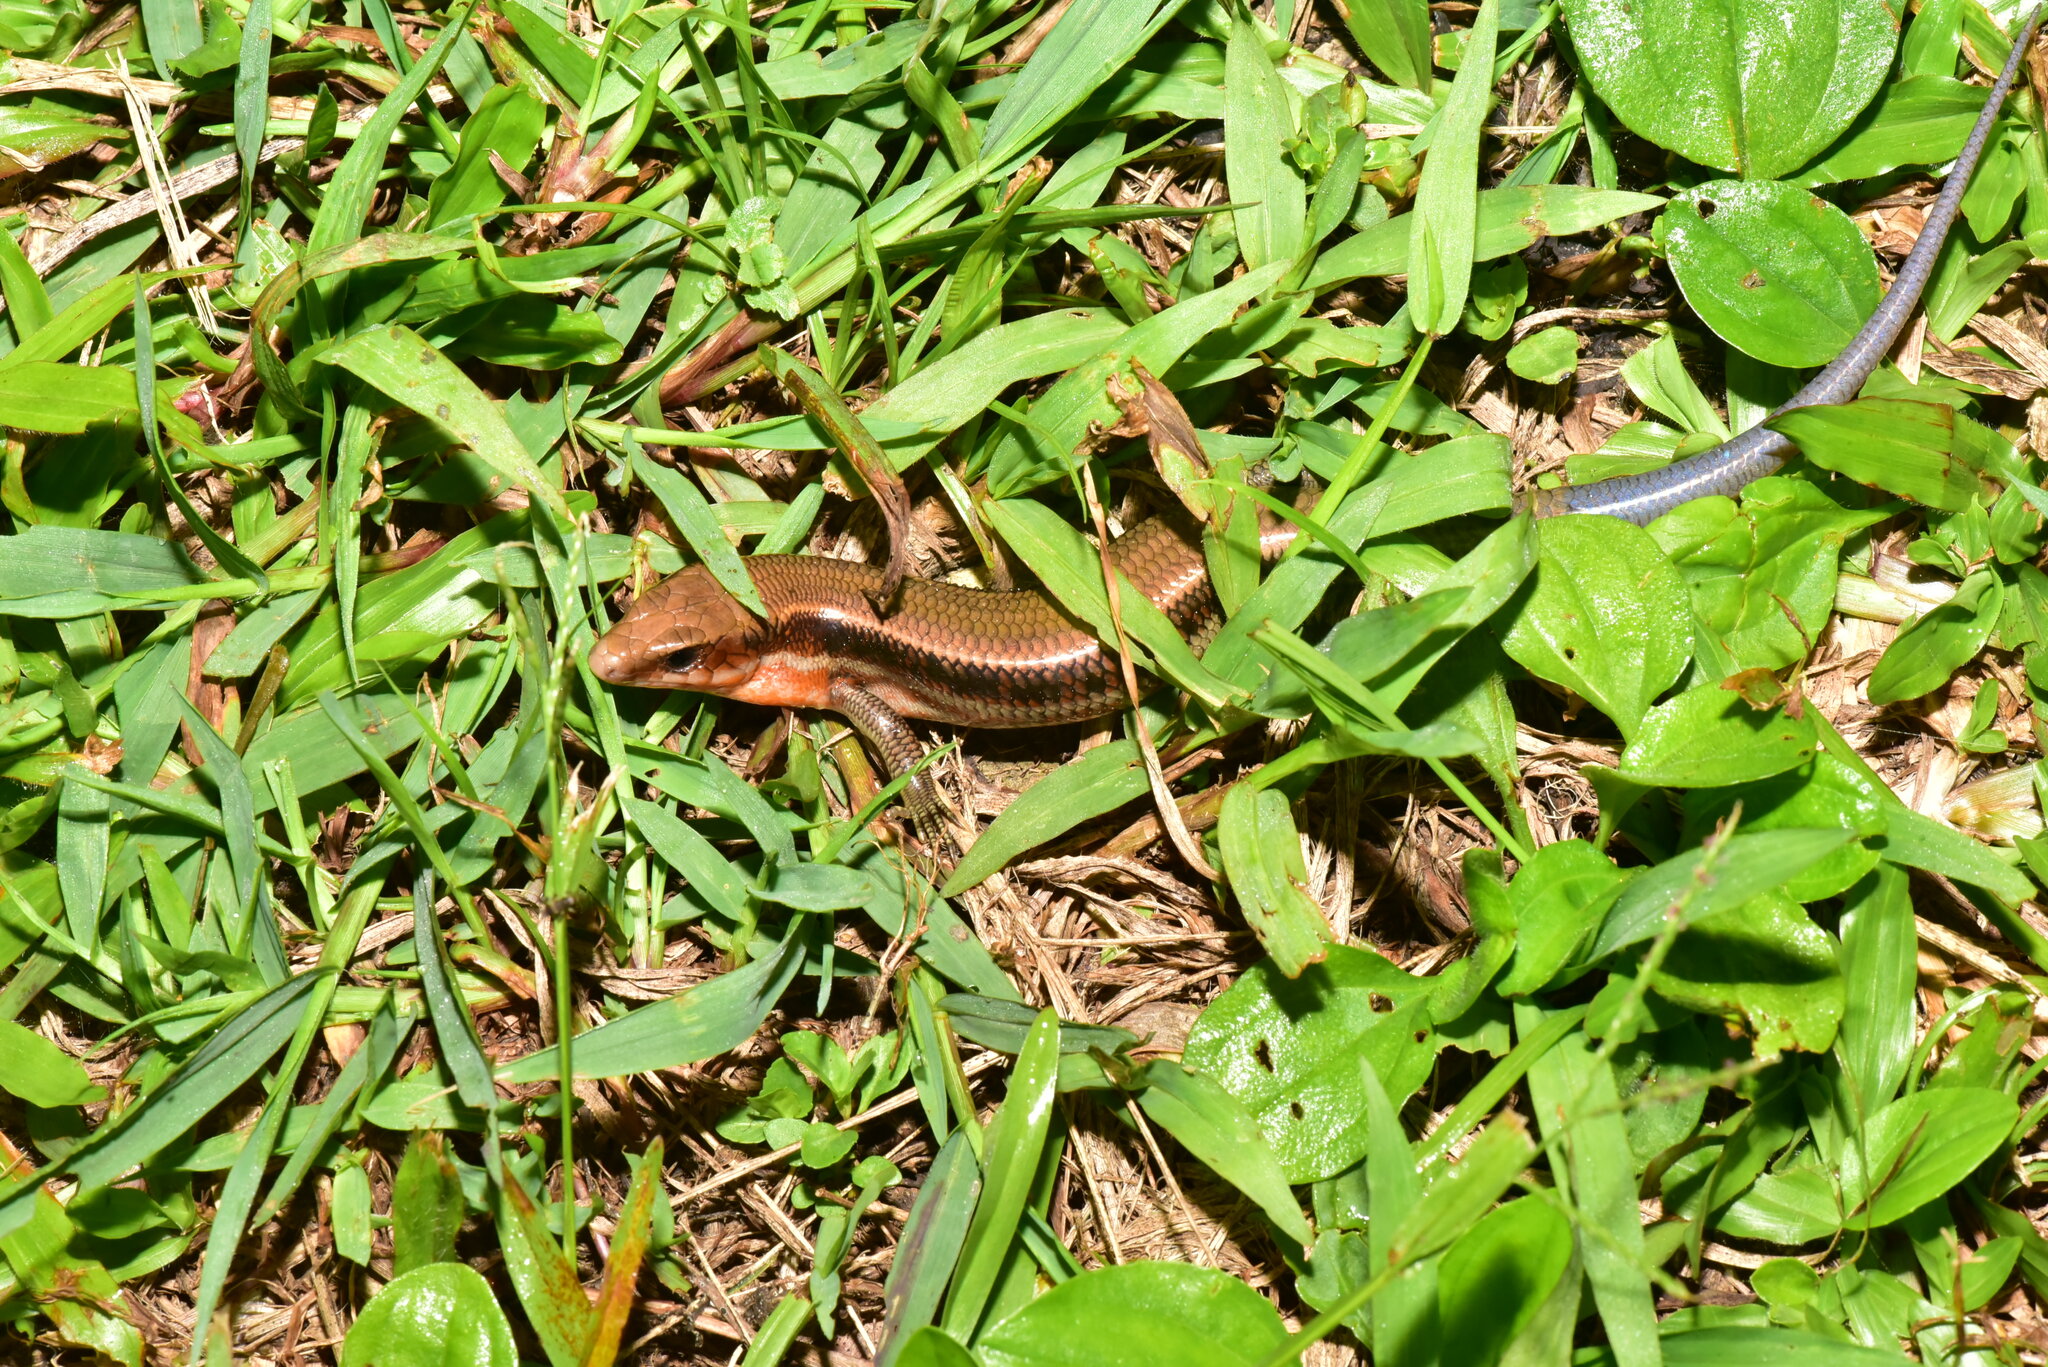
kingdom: Animalia
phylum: Chordata
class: Squamata
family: Scincidae
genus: Plestiodon
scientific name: Plestiodon elegans
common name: Shanghai elegant skink
